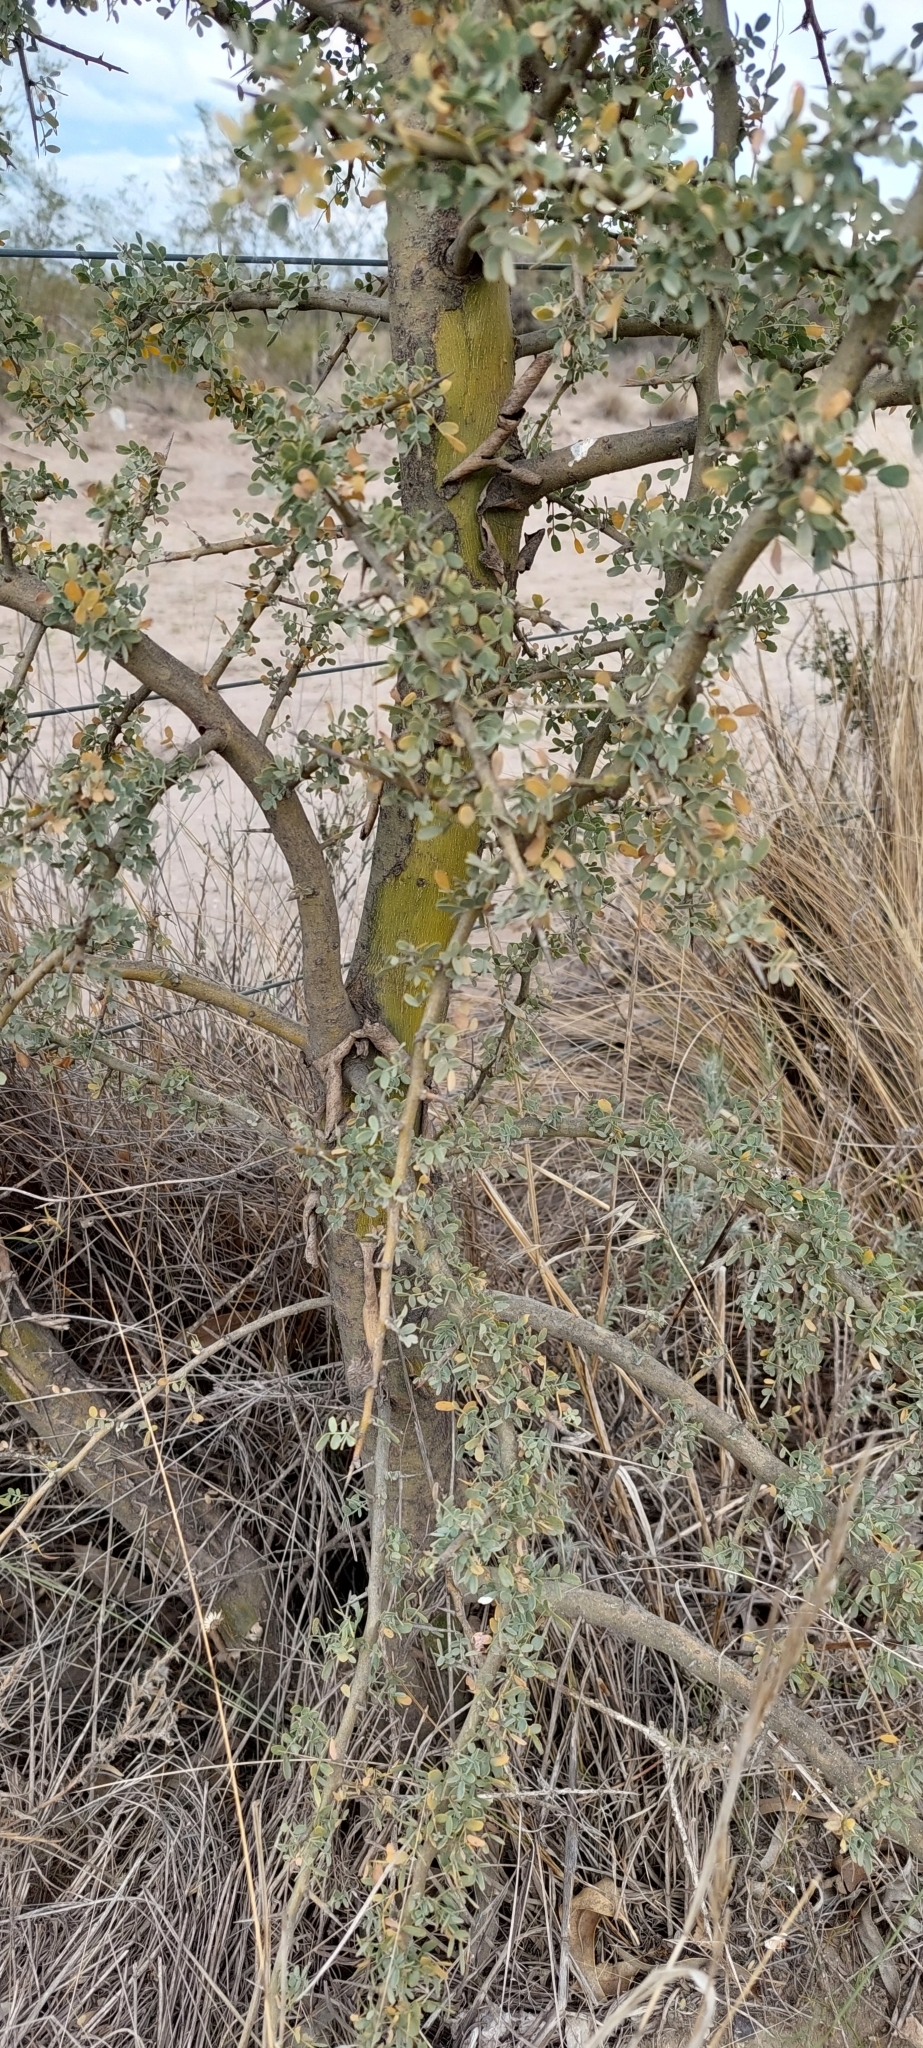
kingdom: Plantae
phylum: Tracheophyta
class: Magnoliopsida
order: Fabales
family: Fabaceae
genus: Geoffroea
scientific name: Geoffroea decorticans
